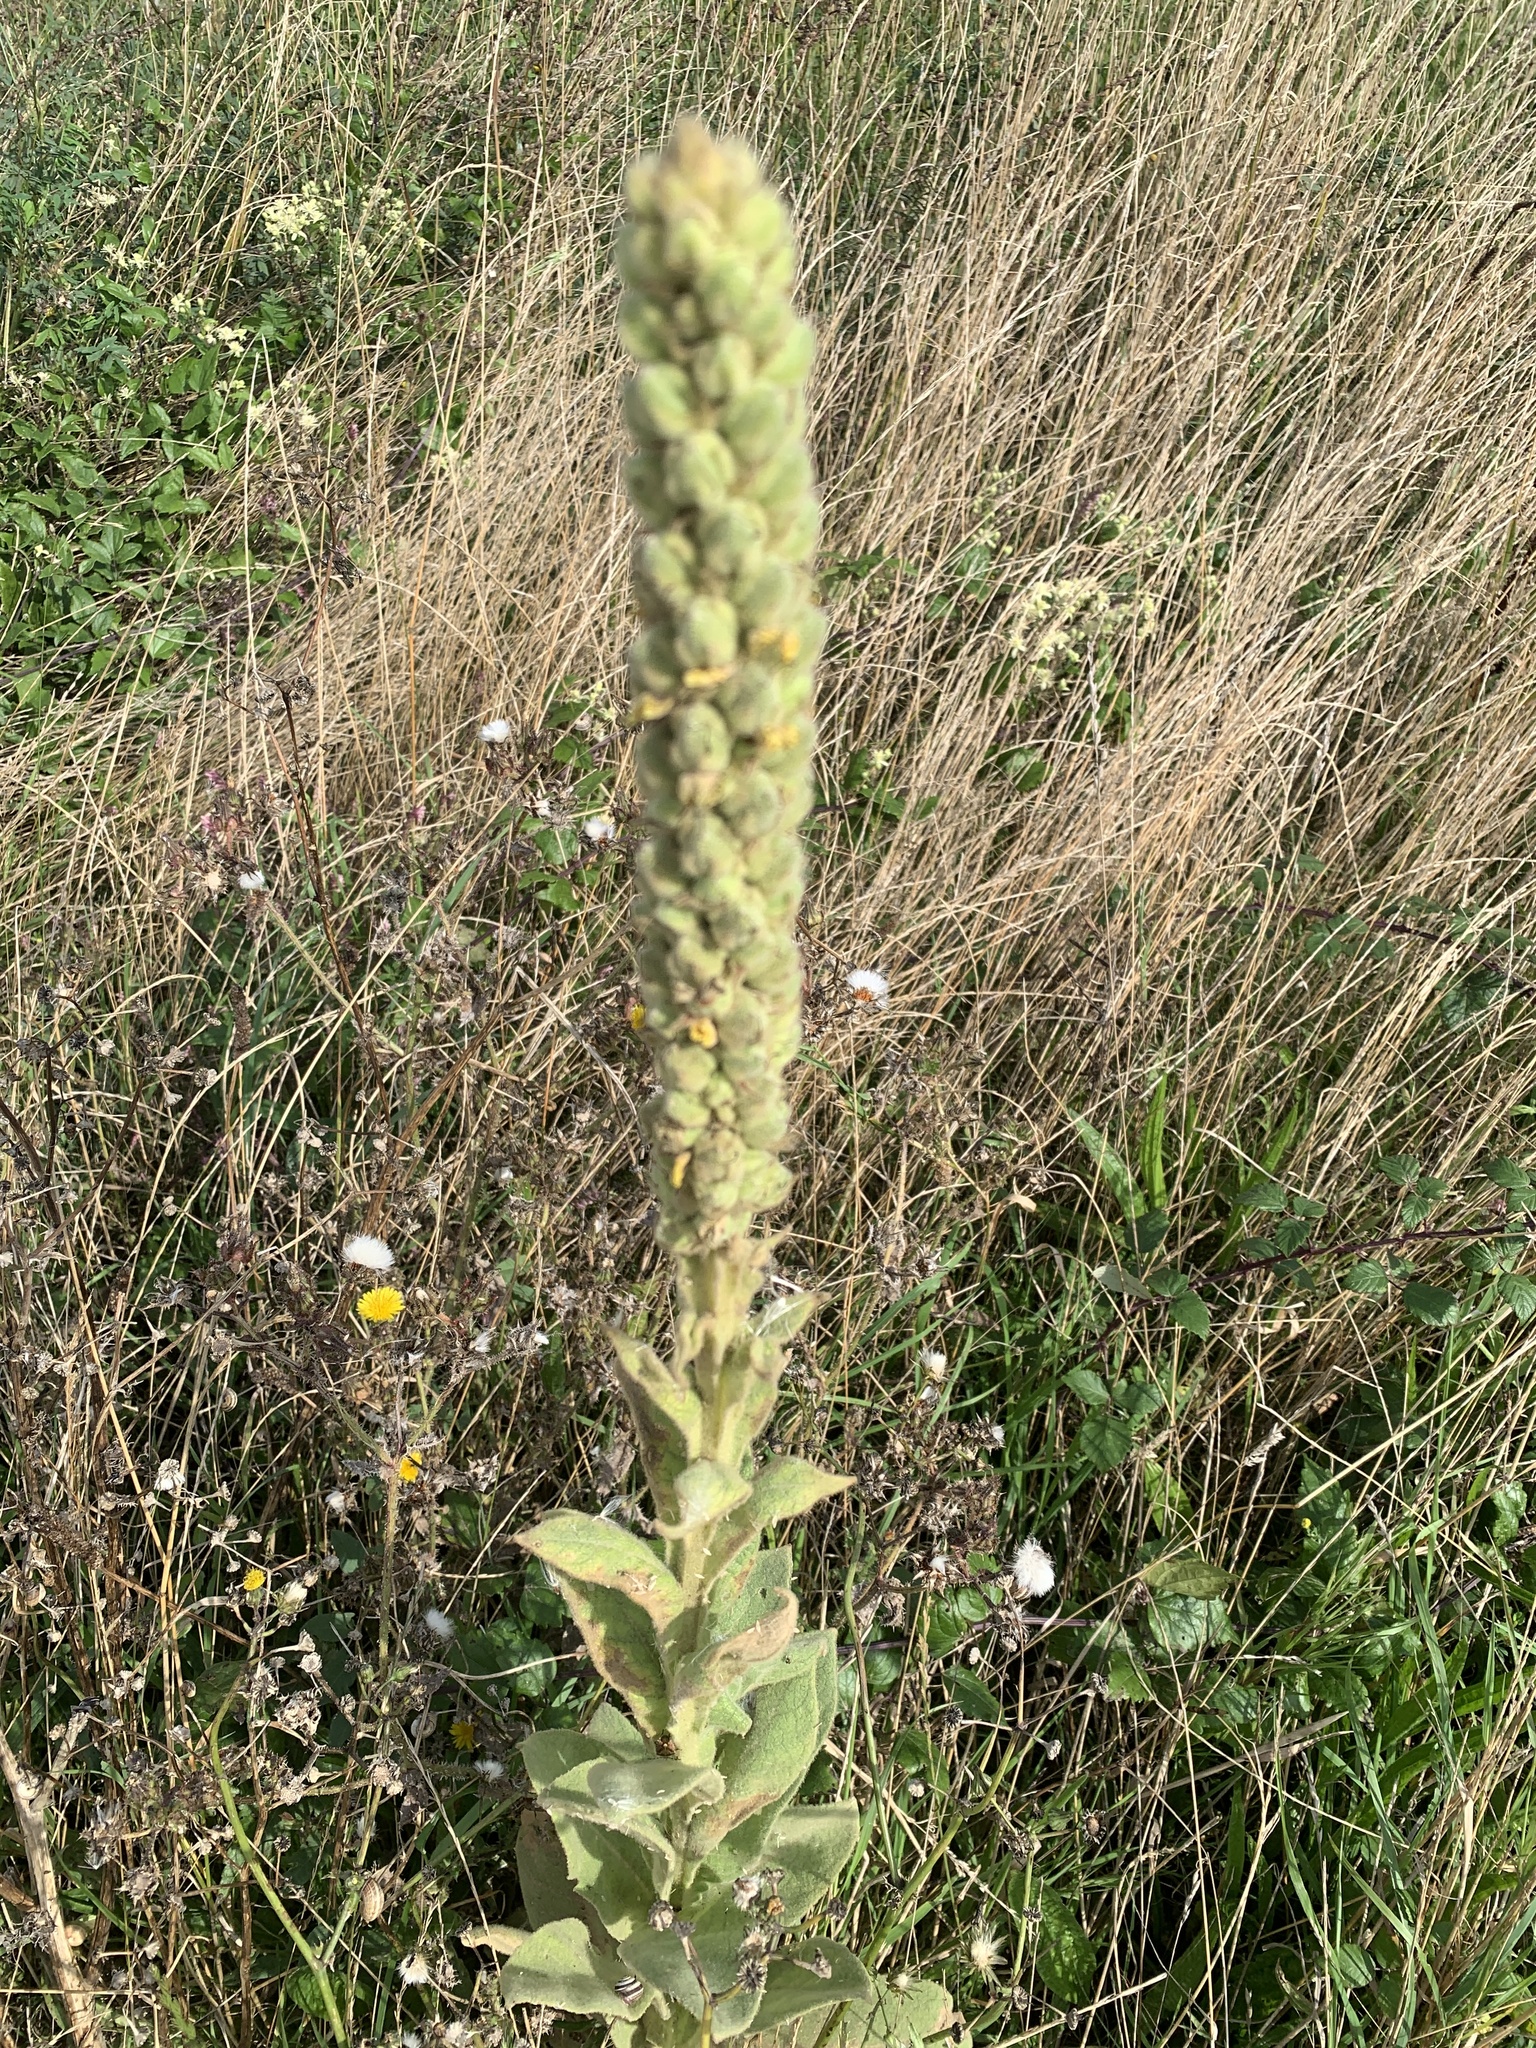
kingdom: Plantae
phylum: Tracheophyta
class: Magnoliopsida
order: Lamiales
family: Scrophulariaceae
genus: Verbascum
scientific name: Verbascum thapsus
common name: Common mullein
